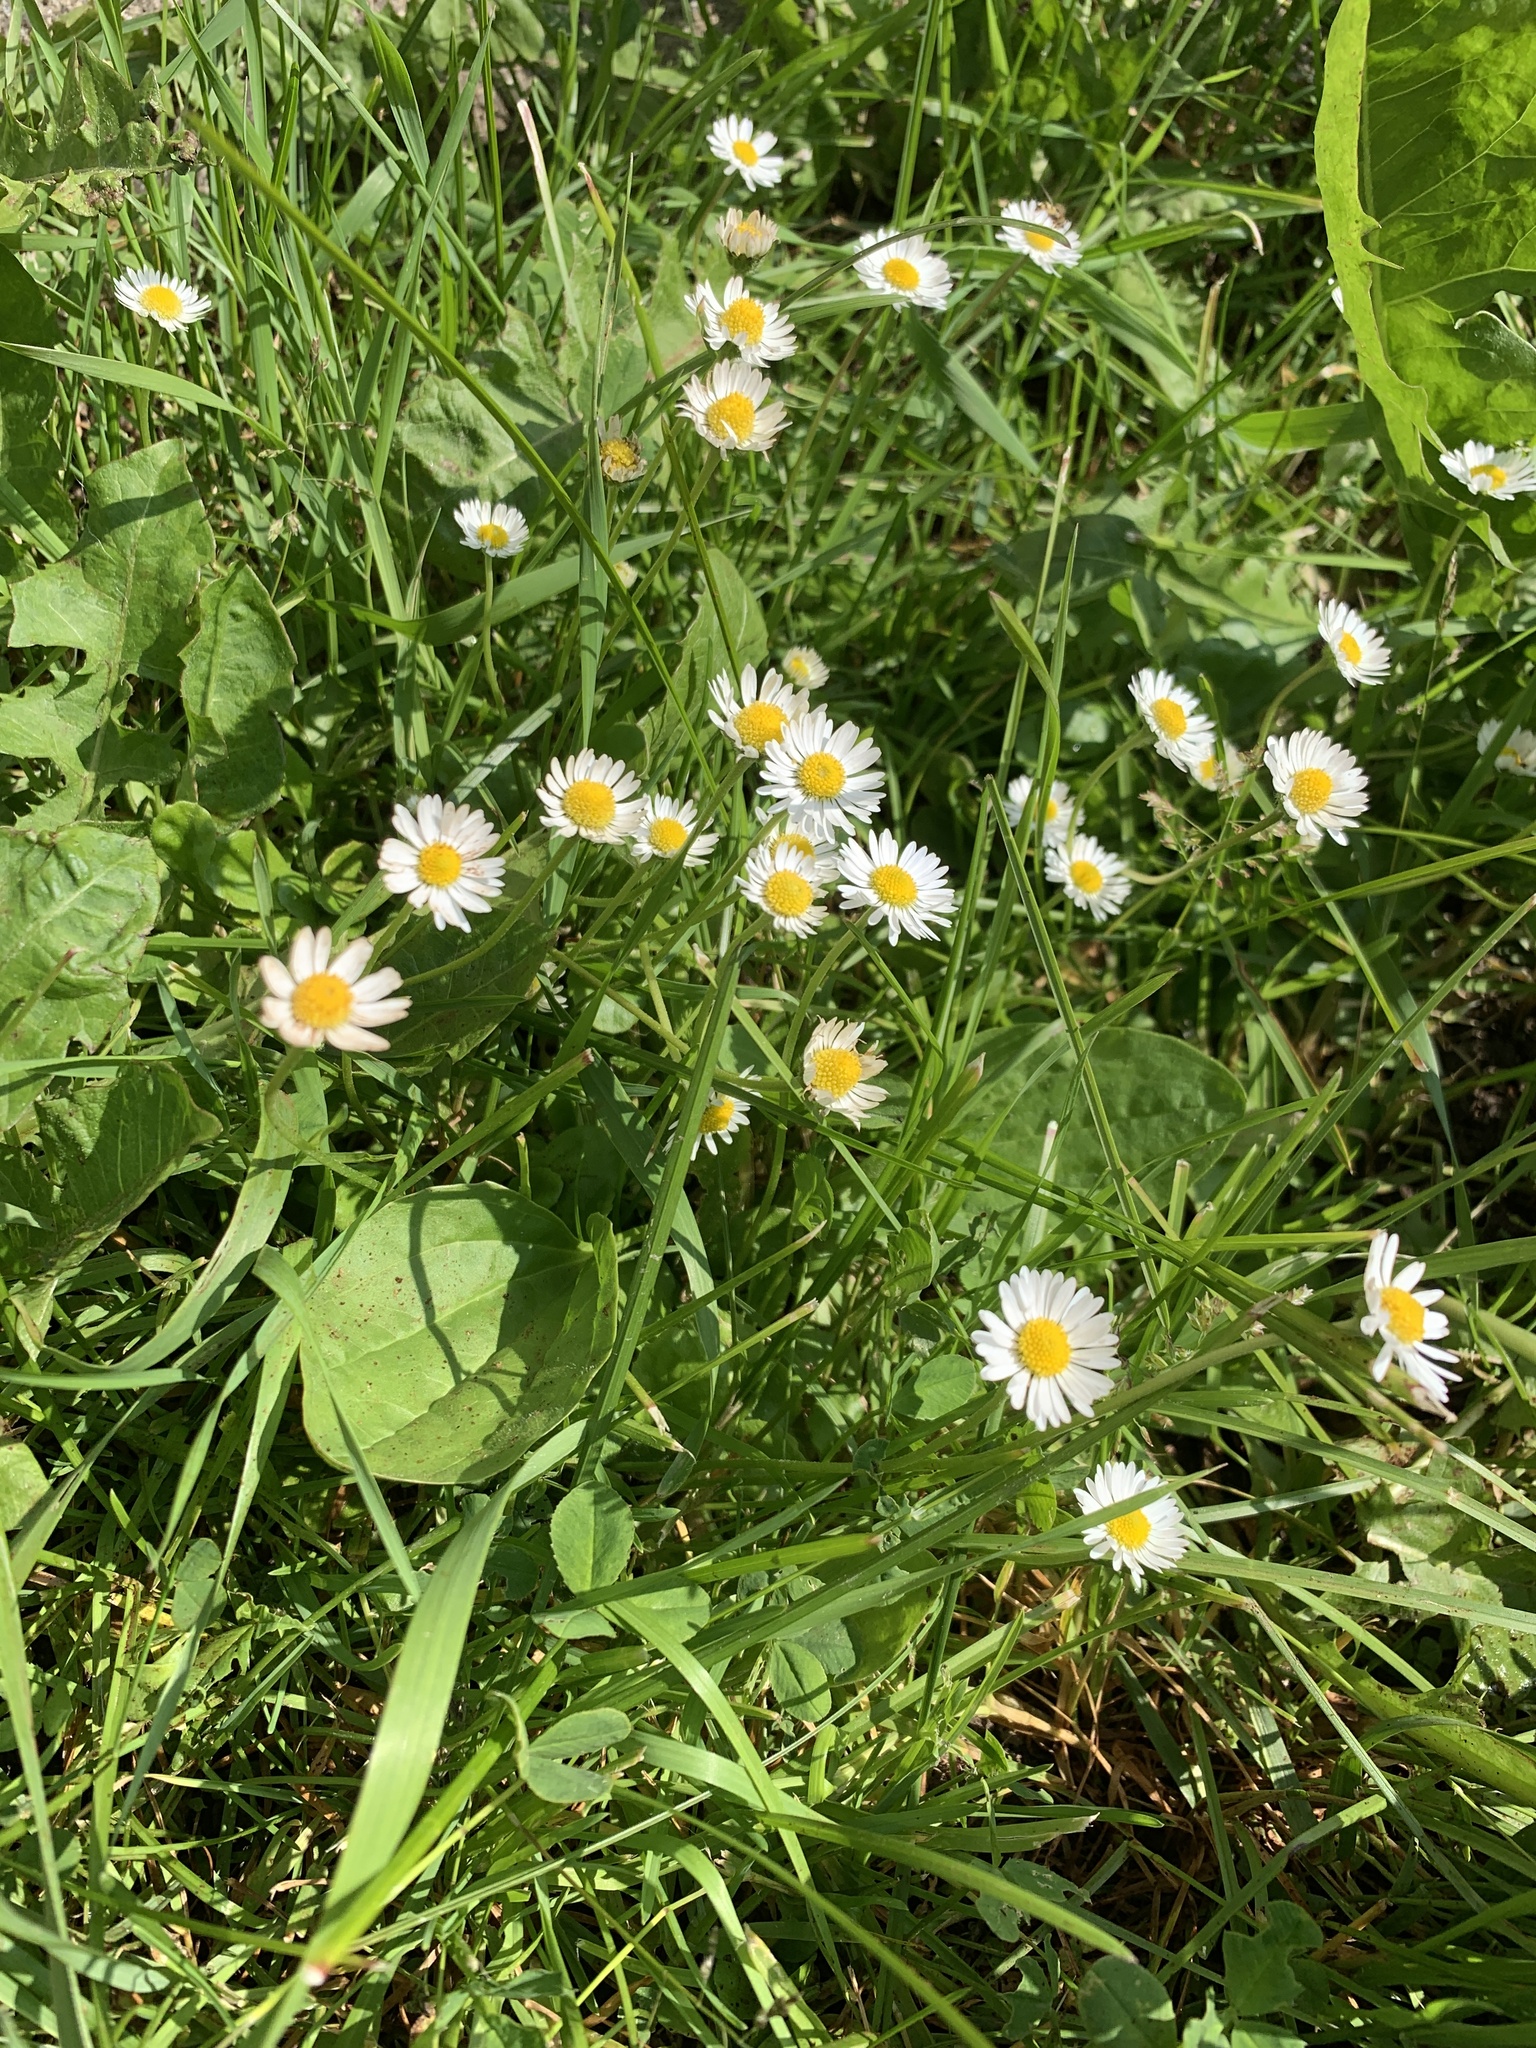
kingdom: Plantae
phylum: Tracheophyta
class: Magnoliopsida
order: Asterales
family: Asteraceae
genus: Bellis
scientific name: Bellis perennis
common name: Lawndaisy
